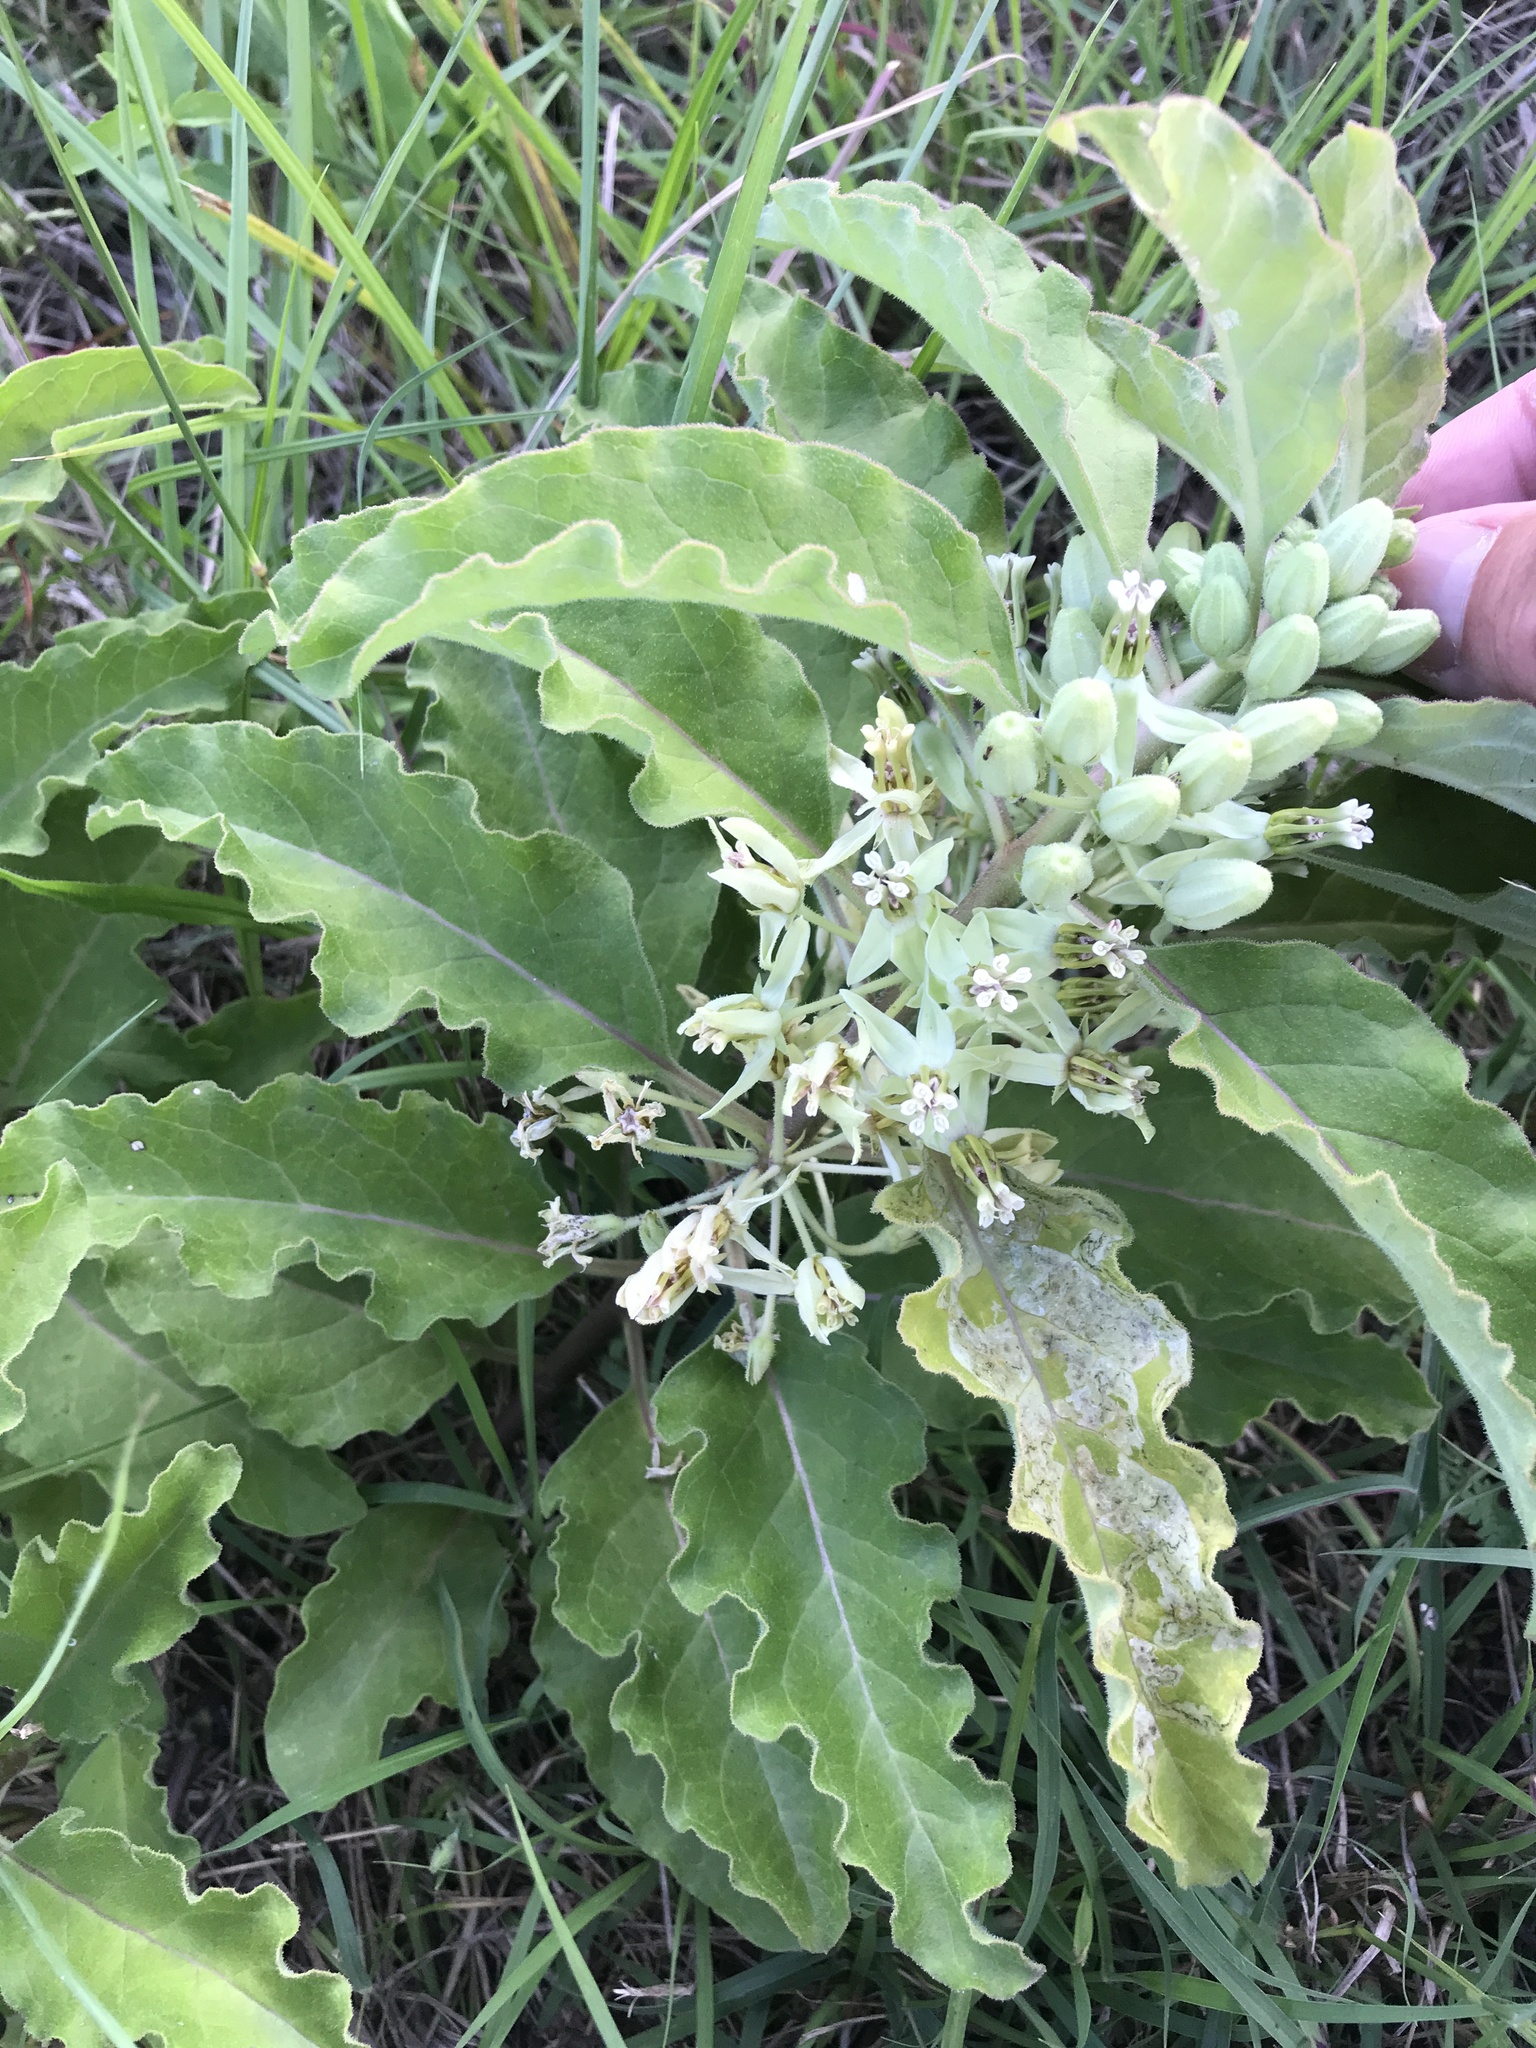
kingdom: Plantae
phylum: Tracheophyta
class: Magnoliopsida
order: Gentianales
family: Apocynaceae
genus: Asclepias
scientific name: Asclepias oenotheroides
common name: Zizotes milkweed
